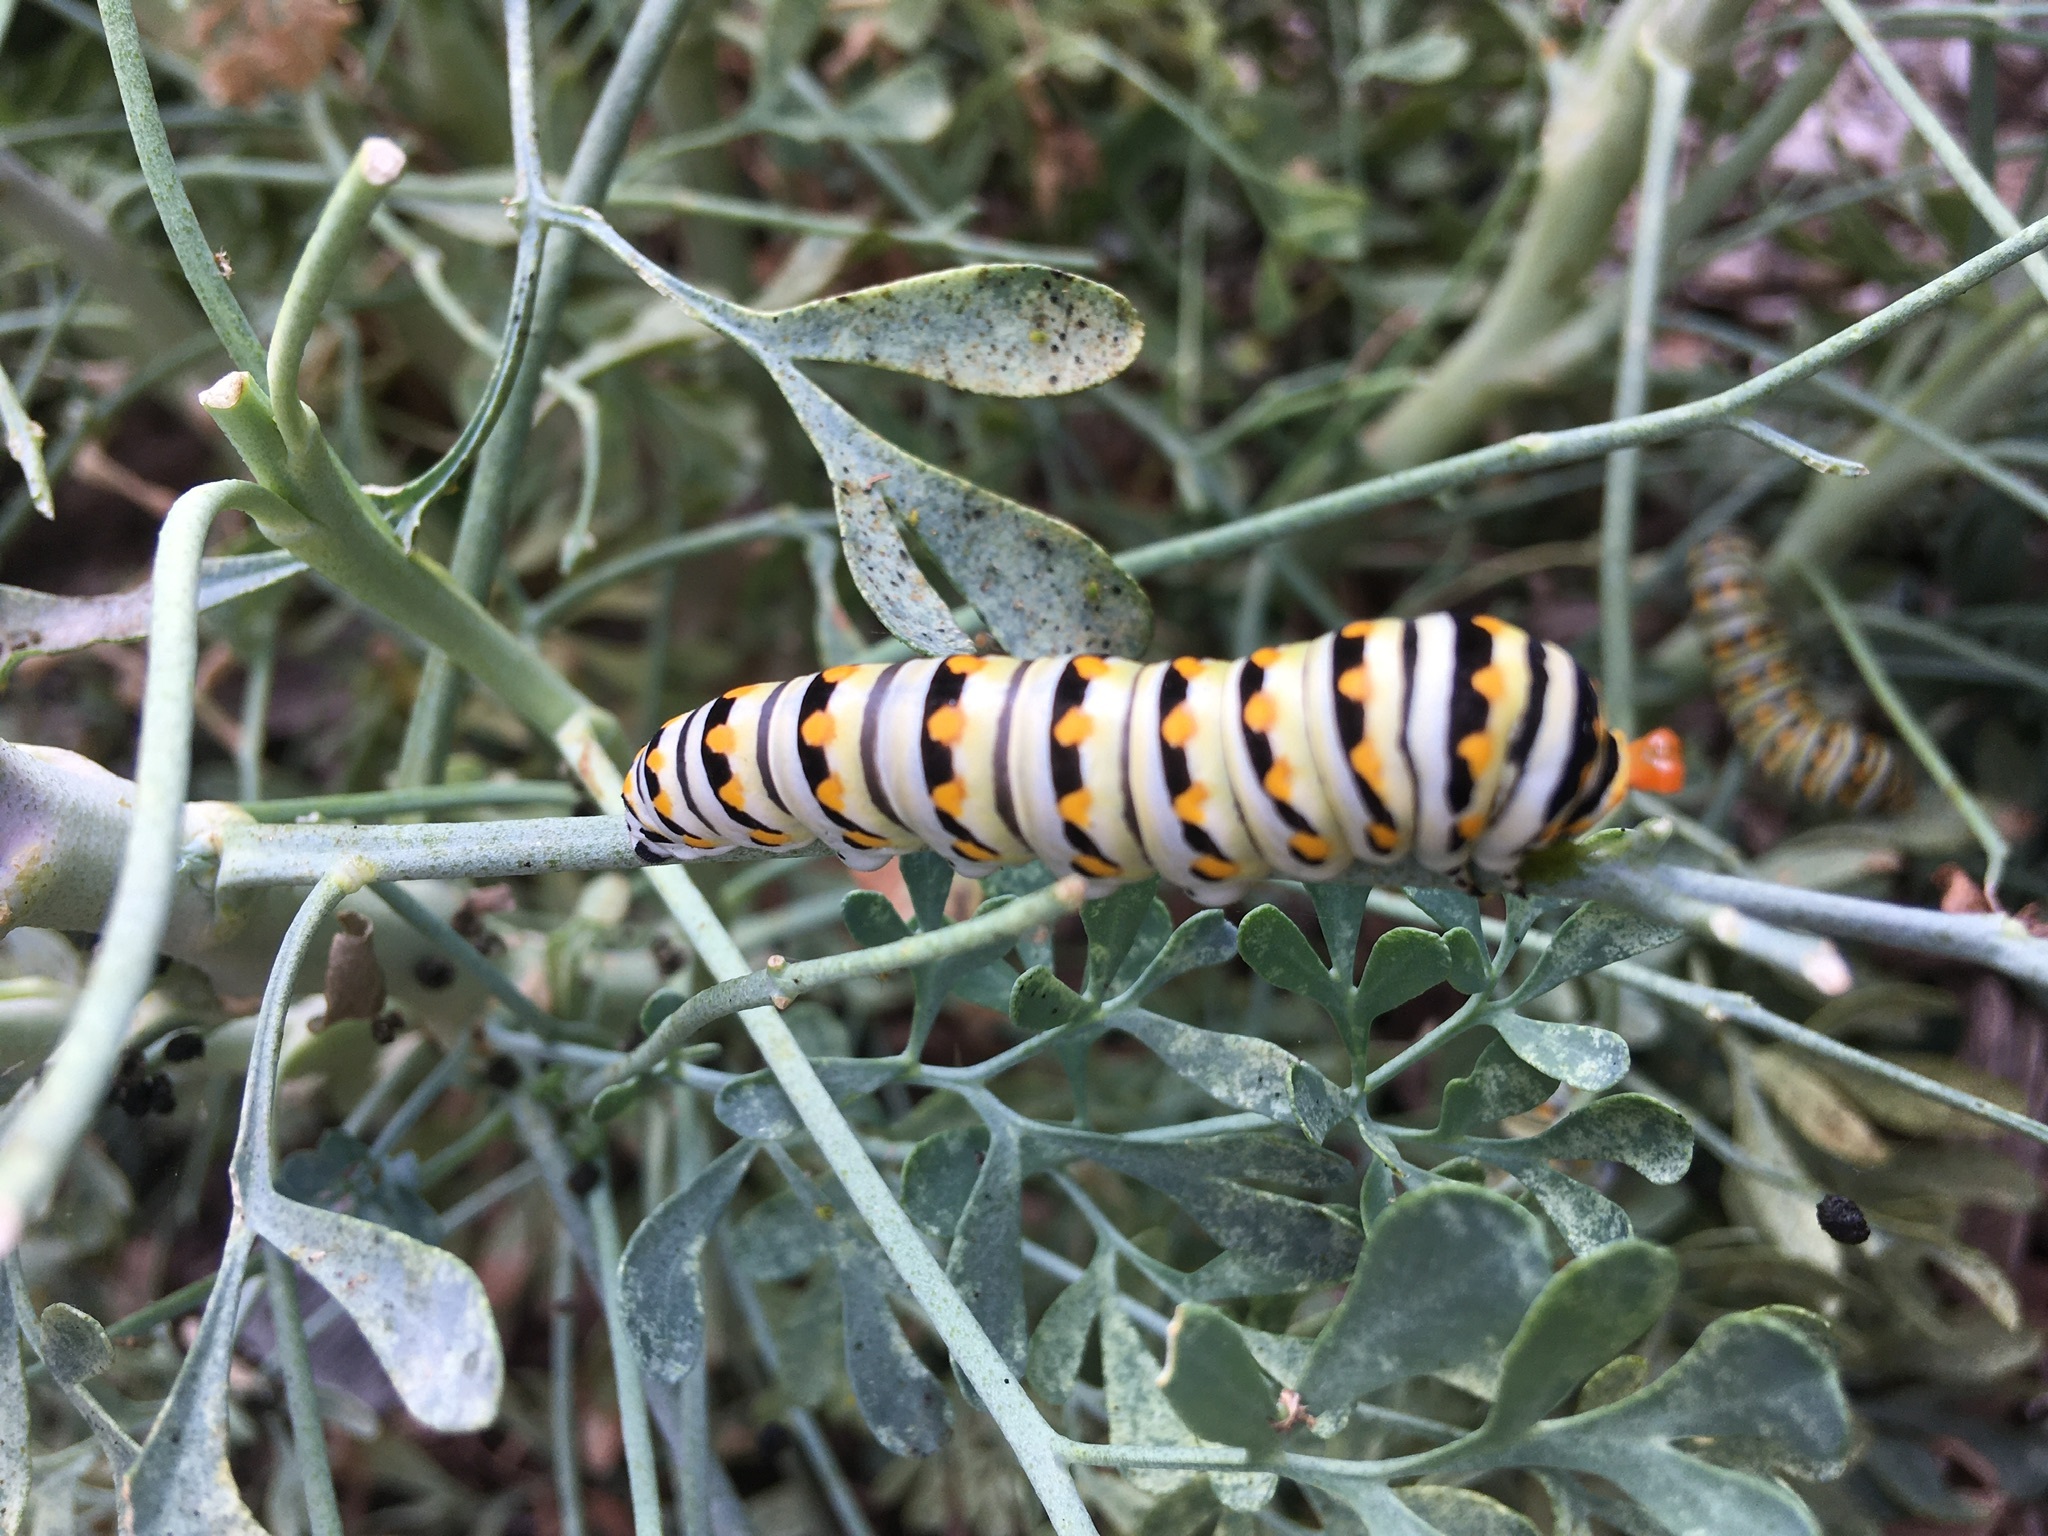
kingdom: Animalia
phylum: Arthropoda
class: Insecta
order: Lepidoptera
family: Papilionidae
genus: Papilio
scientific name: Papilio polyxenes
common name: Black swallowtail
